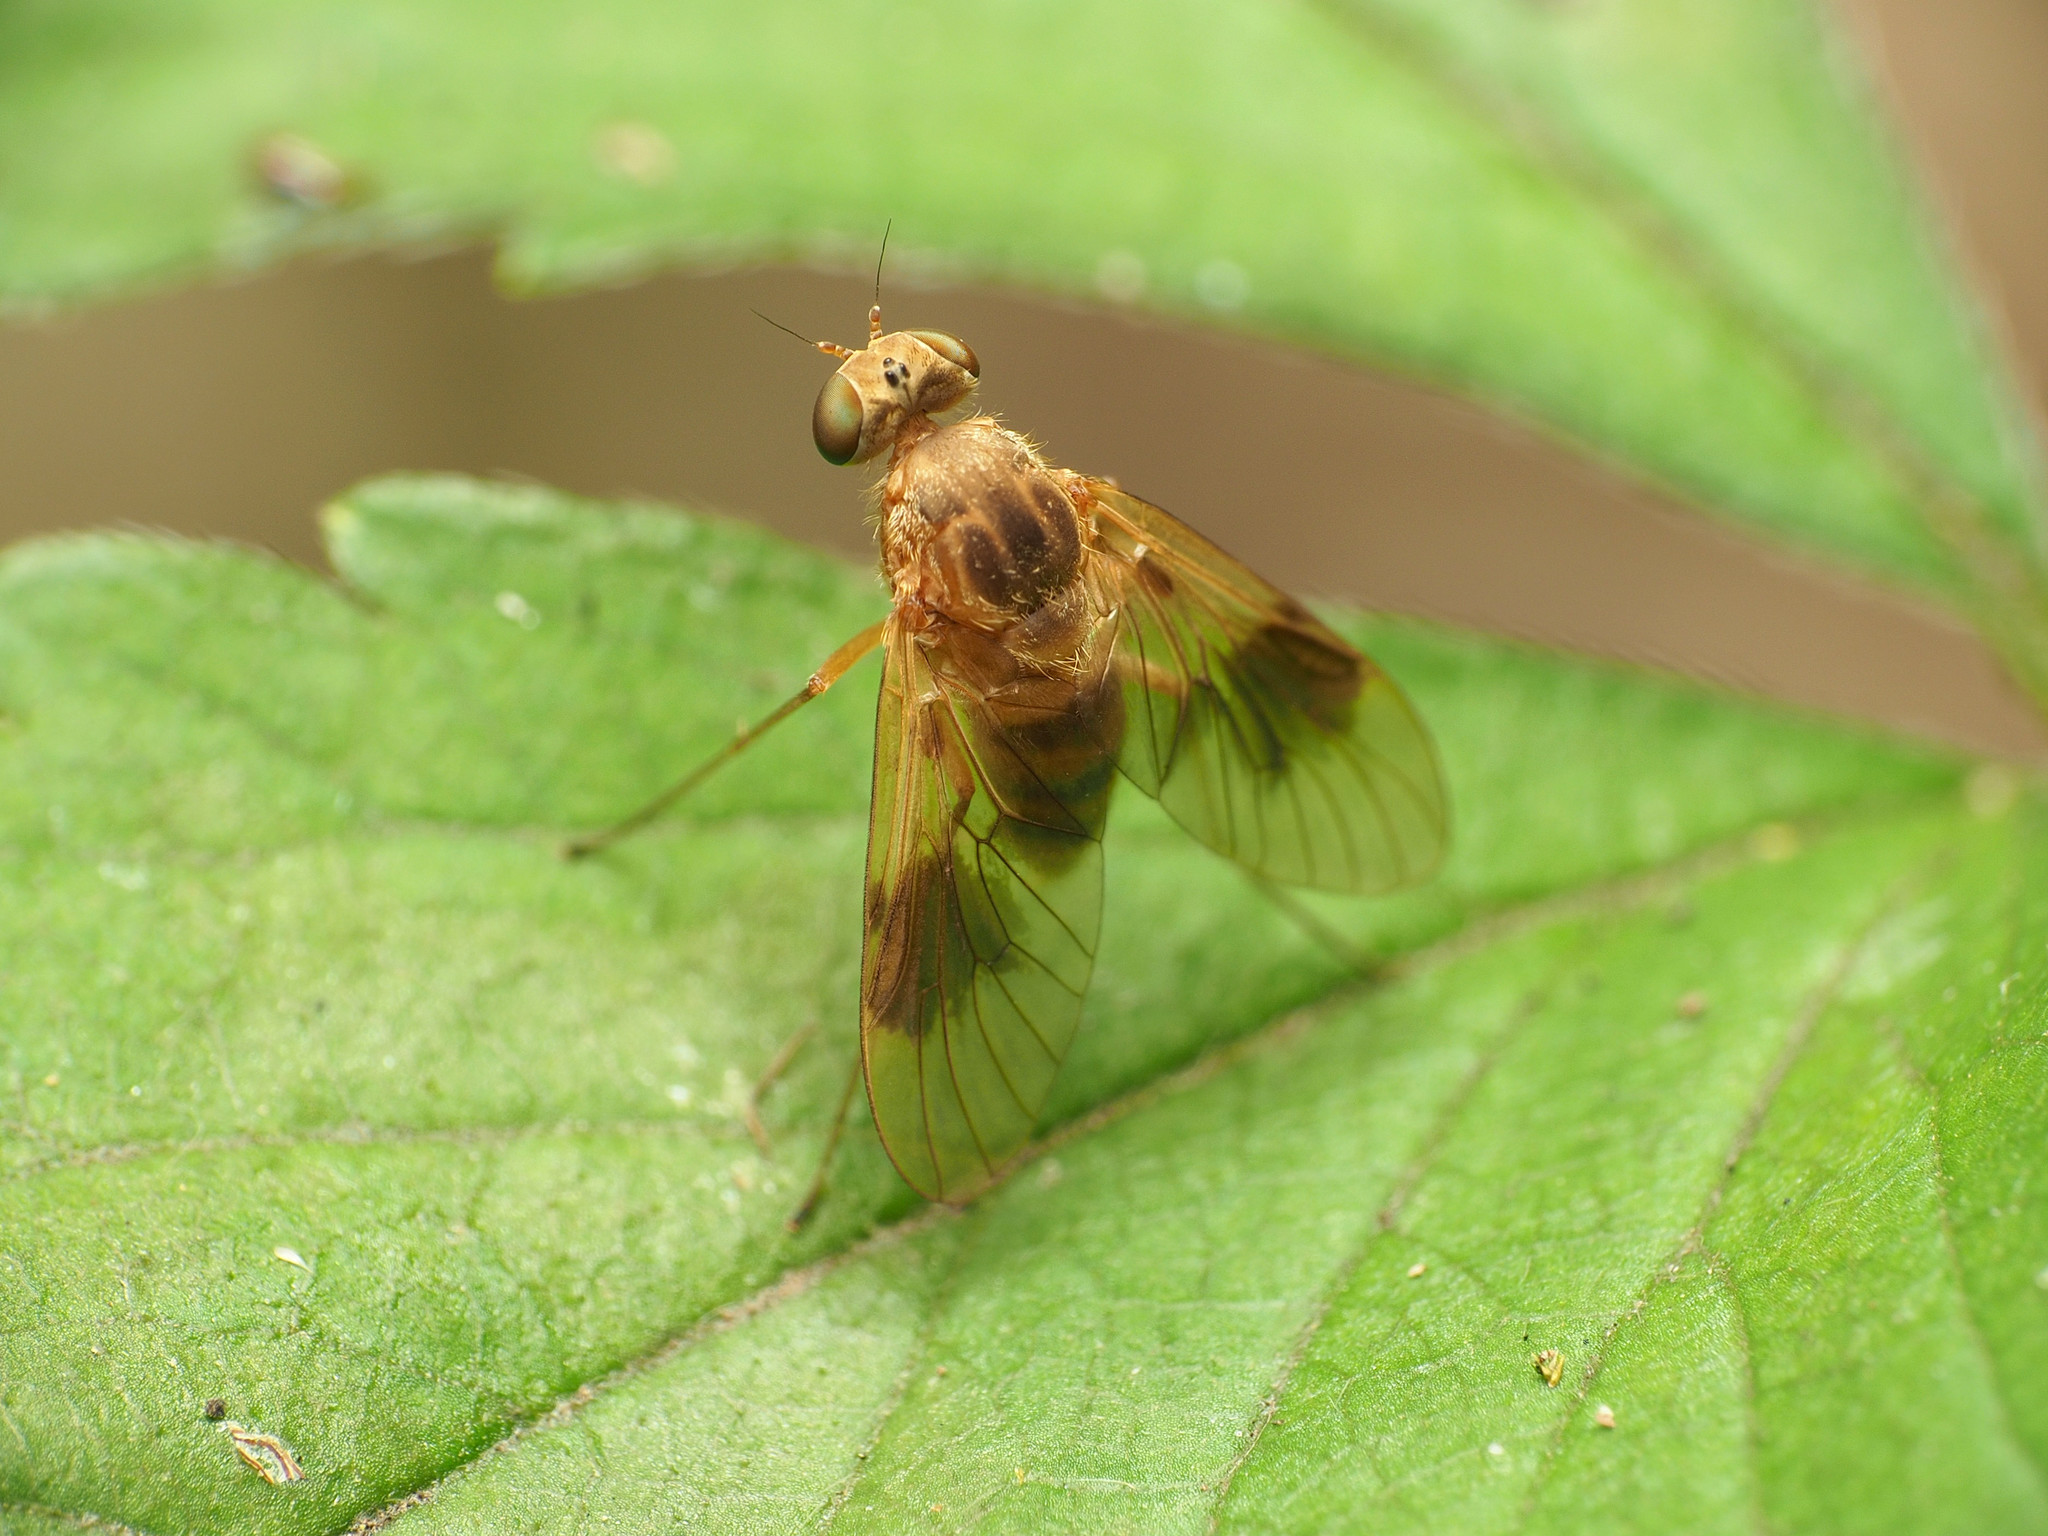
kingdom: Animalia
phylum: Arthropoda
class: Insecta
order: Diptera
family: Rhagionidae
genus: Chrysopilus
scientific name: Chrysopilus quadratus
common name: Quadrate snipe fly
